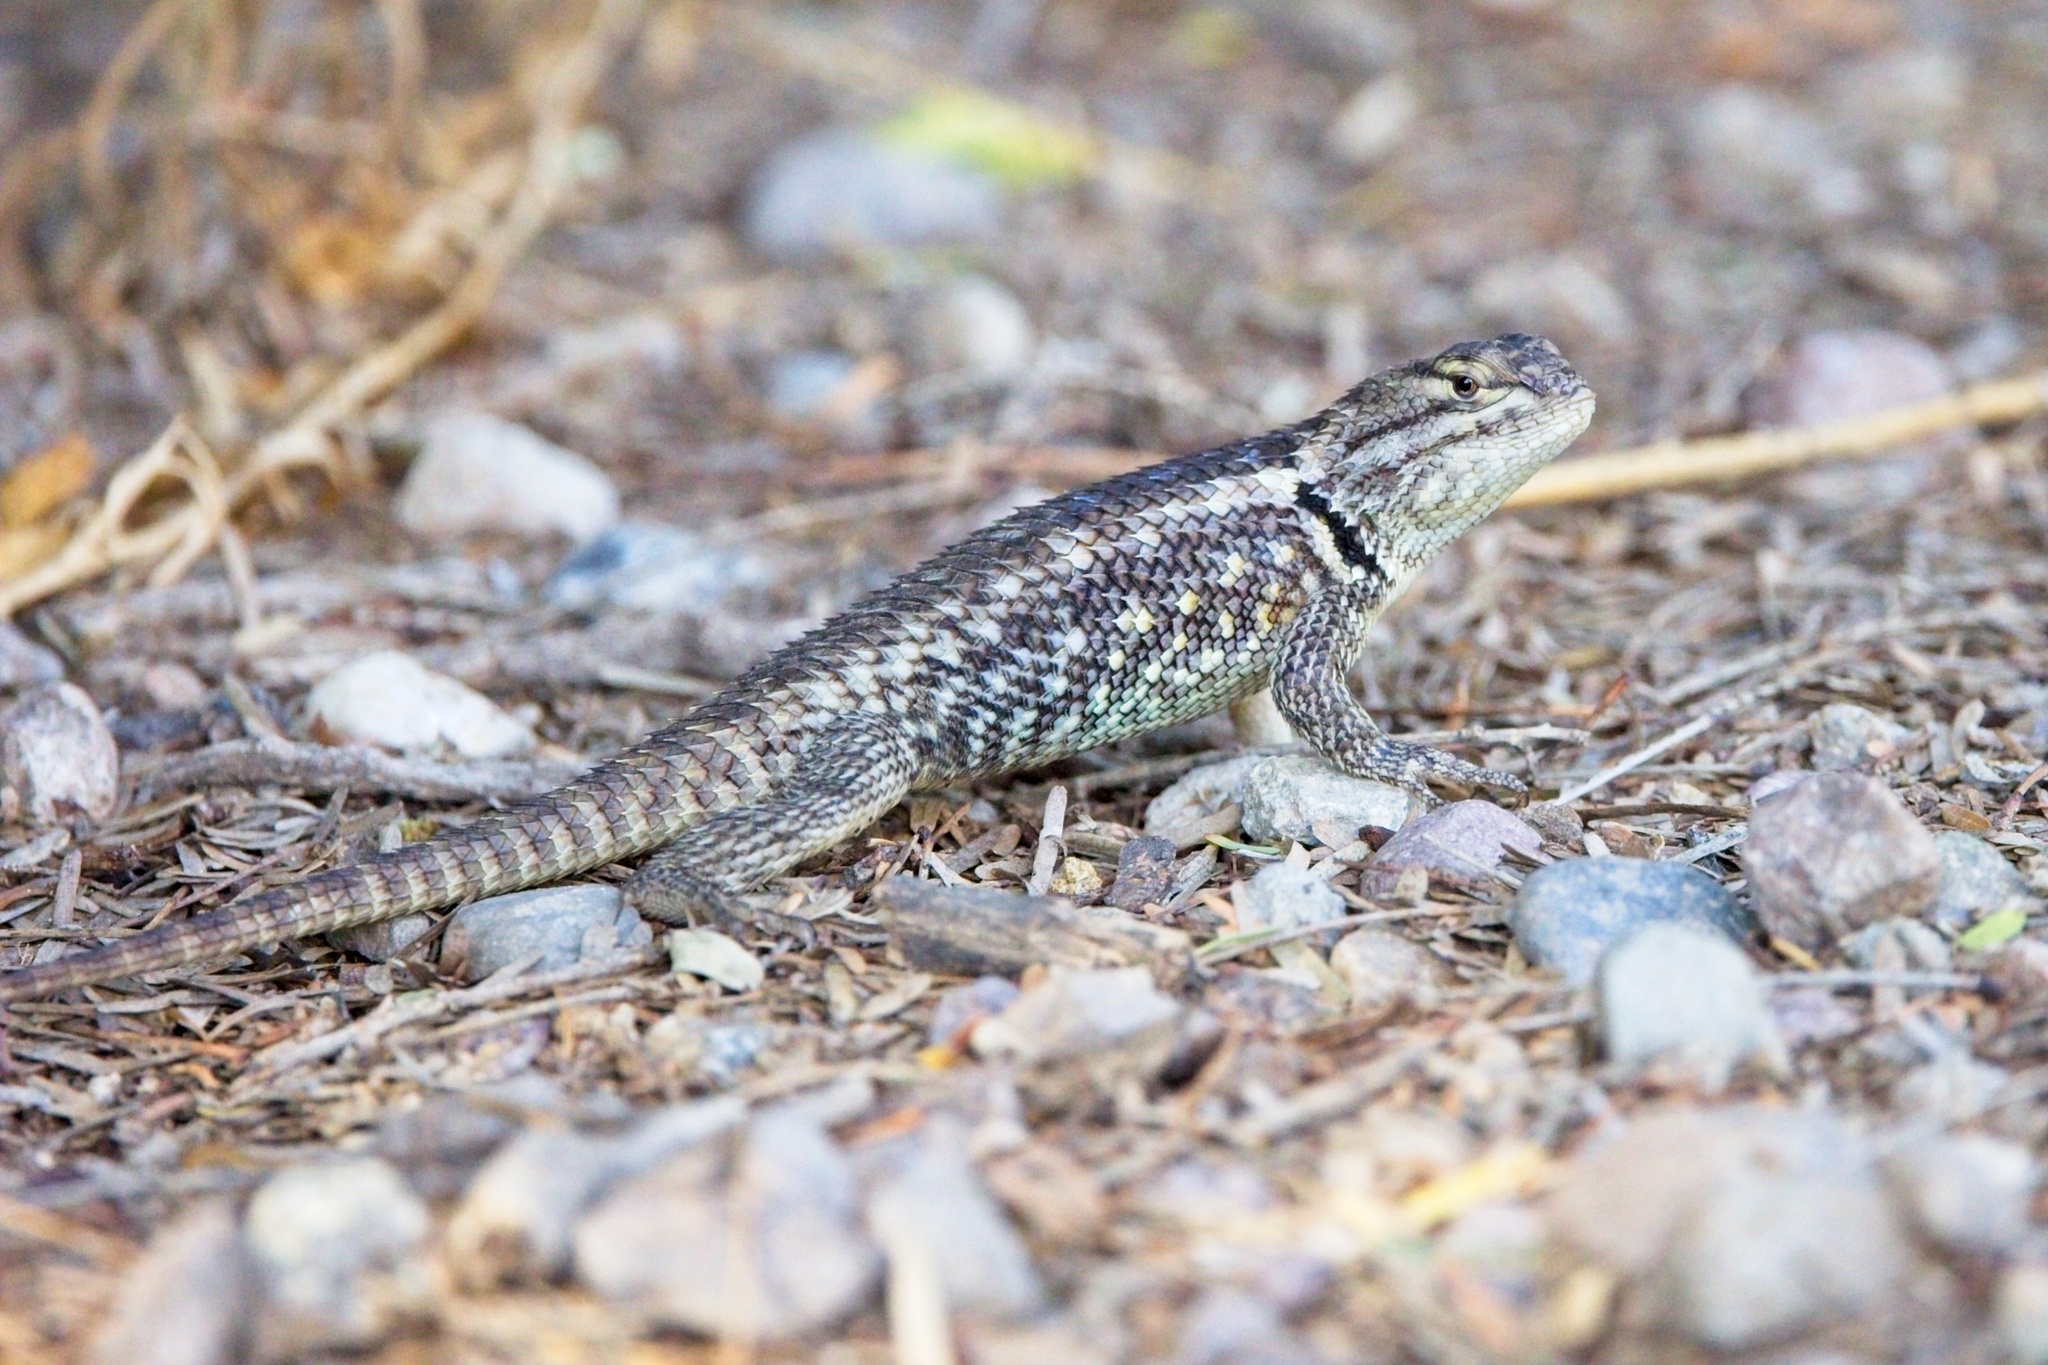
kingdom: Animalia
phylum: Chordata
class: Squamata
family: Phrynosomatidae
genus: Sceloporus
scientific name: Sceloporus magister
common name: Desert spiny lizard
